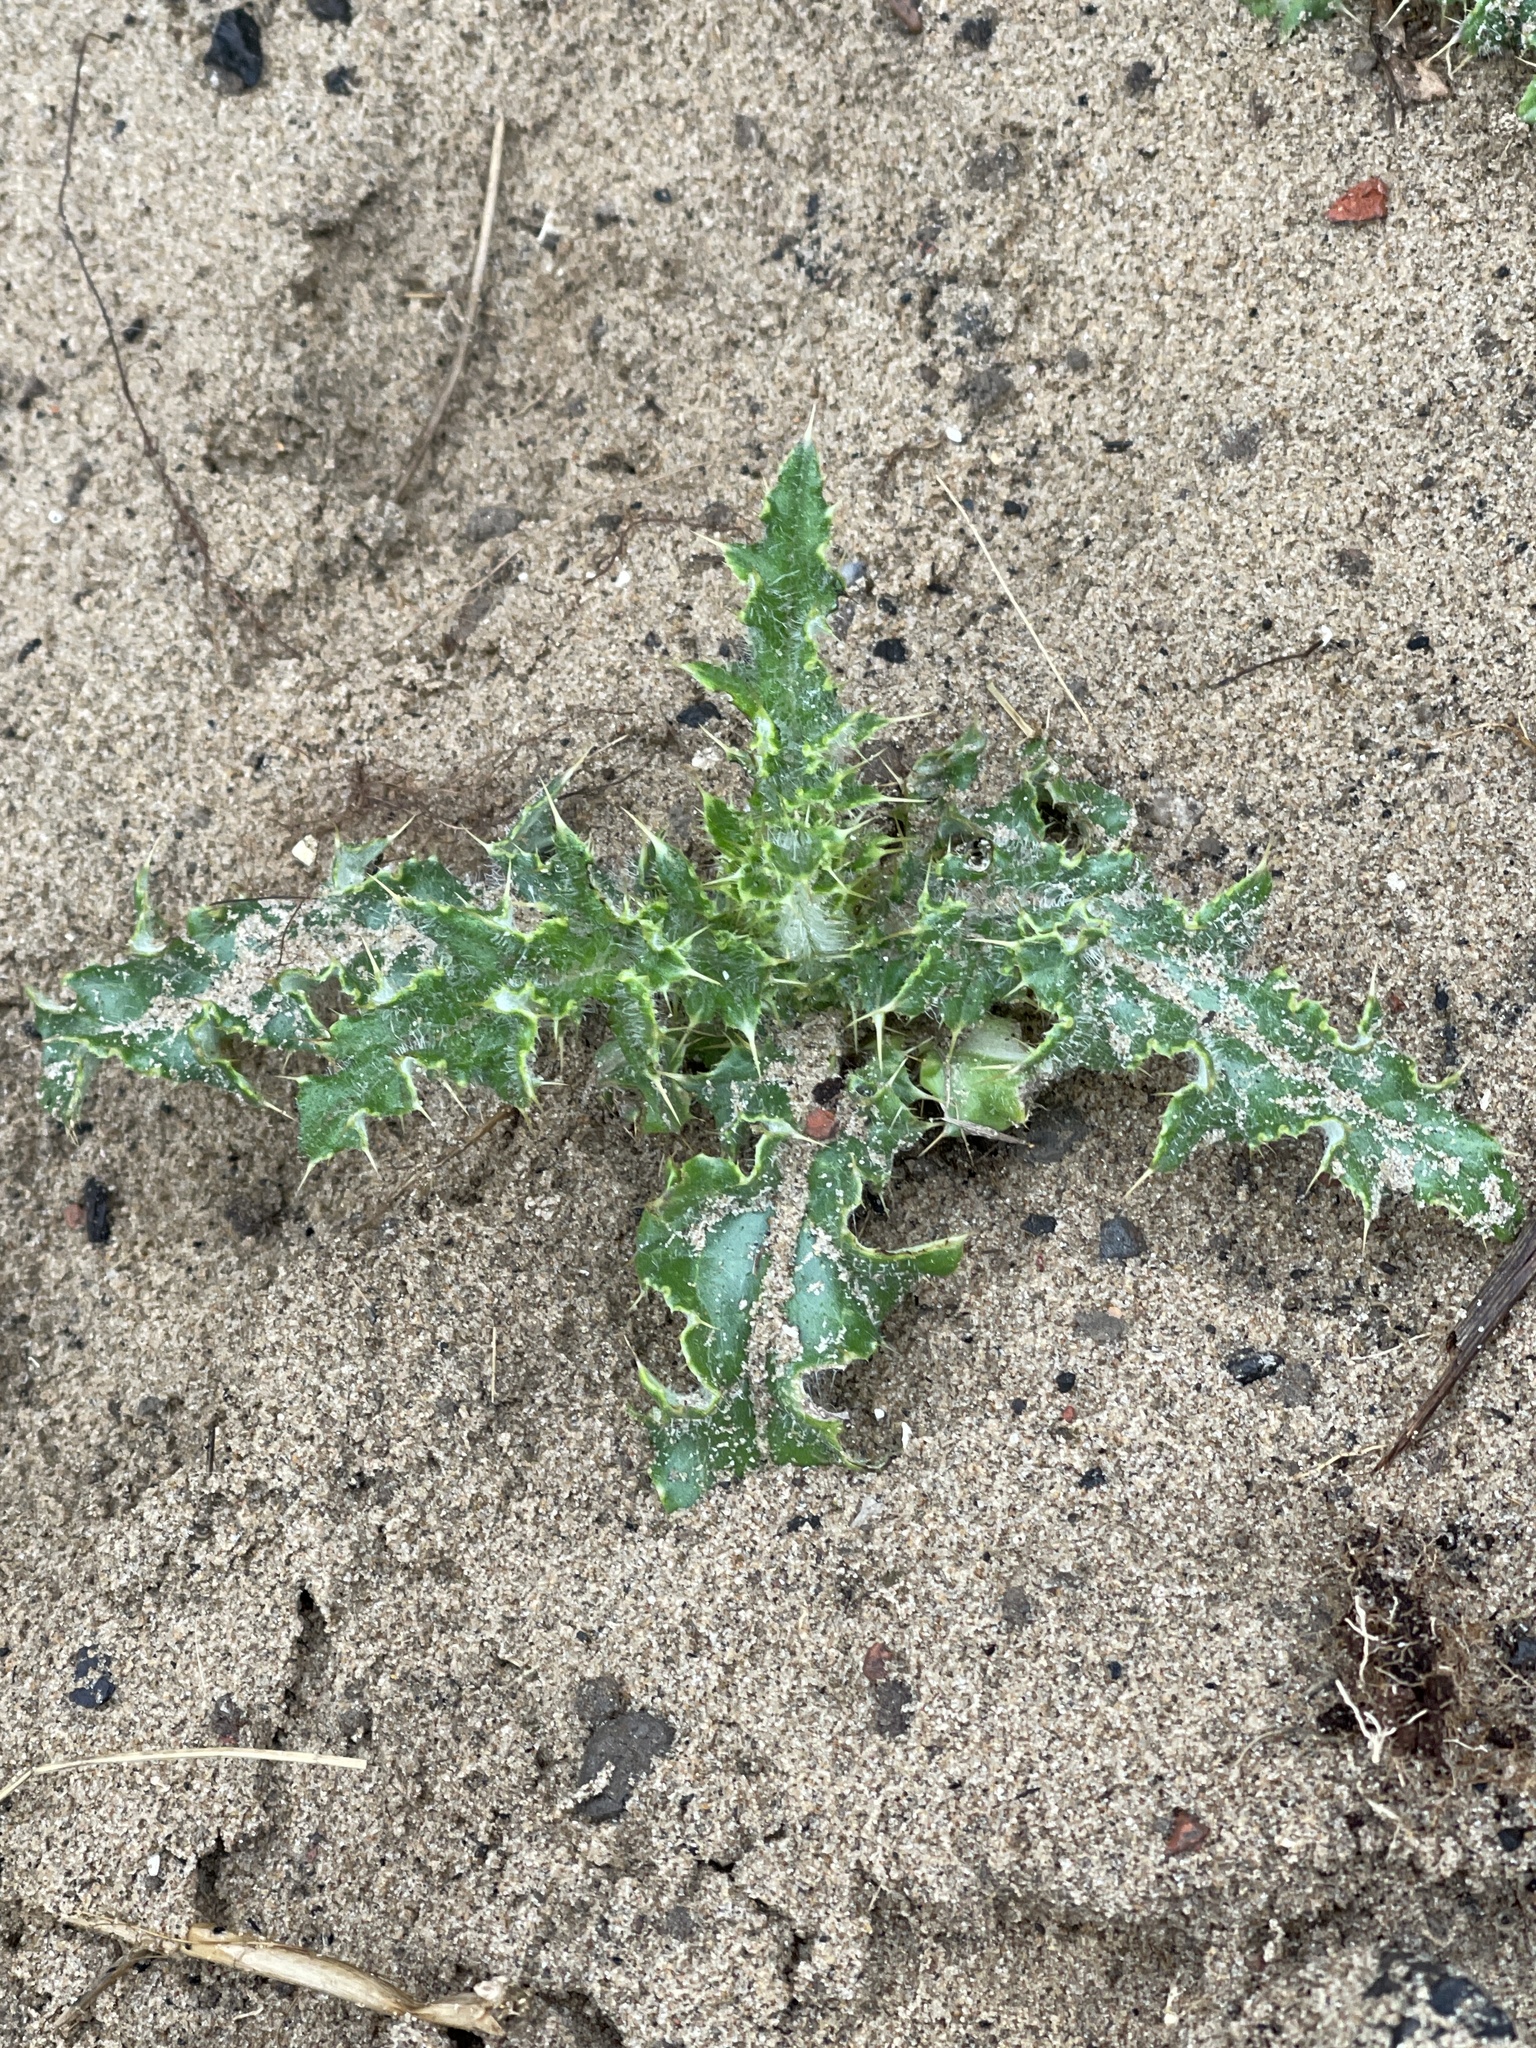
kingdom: Plantae
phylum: Tracheophyta
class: Magnoliopsida
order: Asterales
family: Asteraceae
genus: Cirsium
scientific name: Cirsium arvense
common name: Creeping thistle
